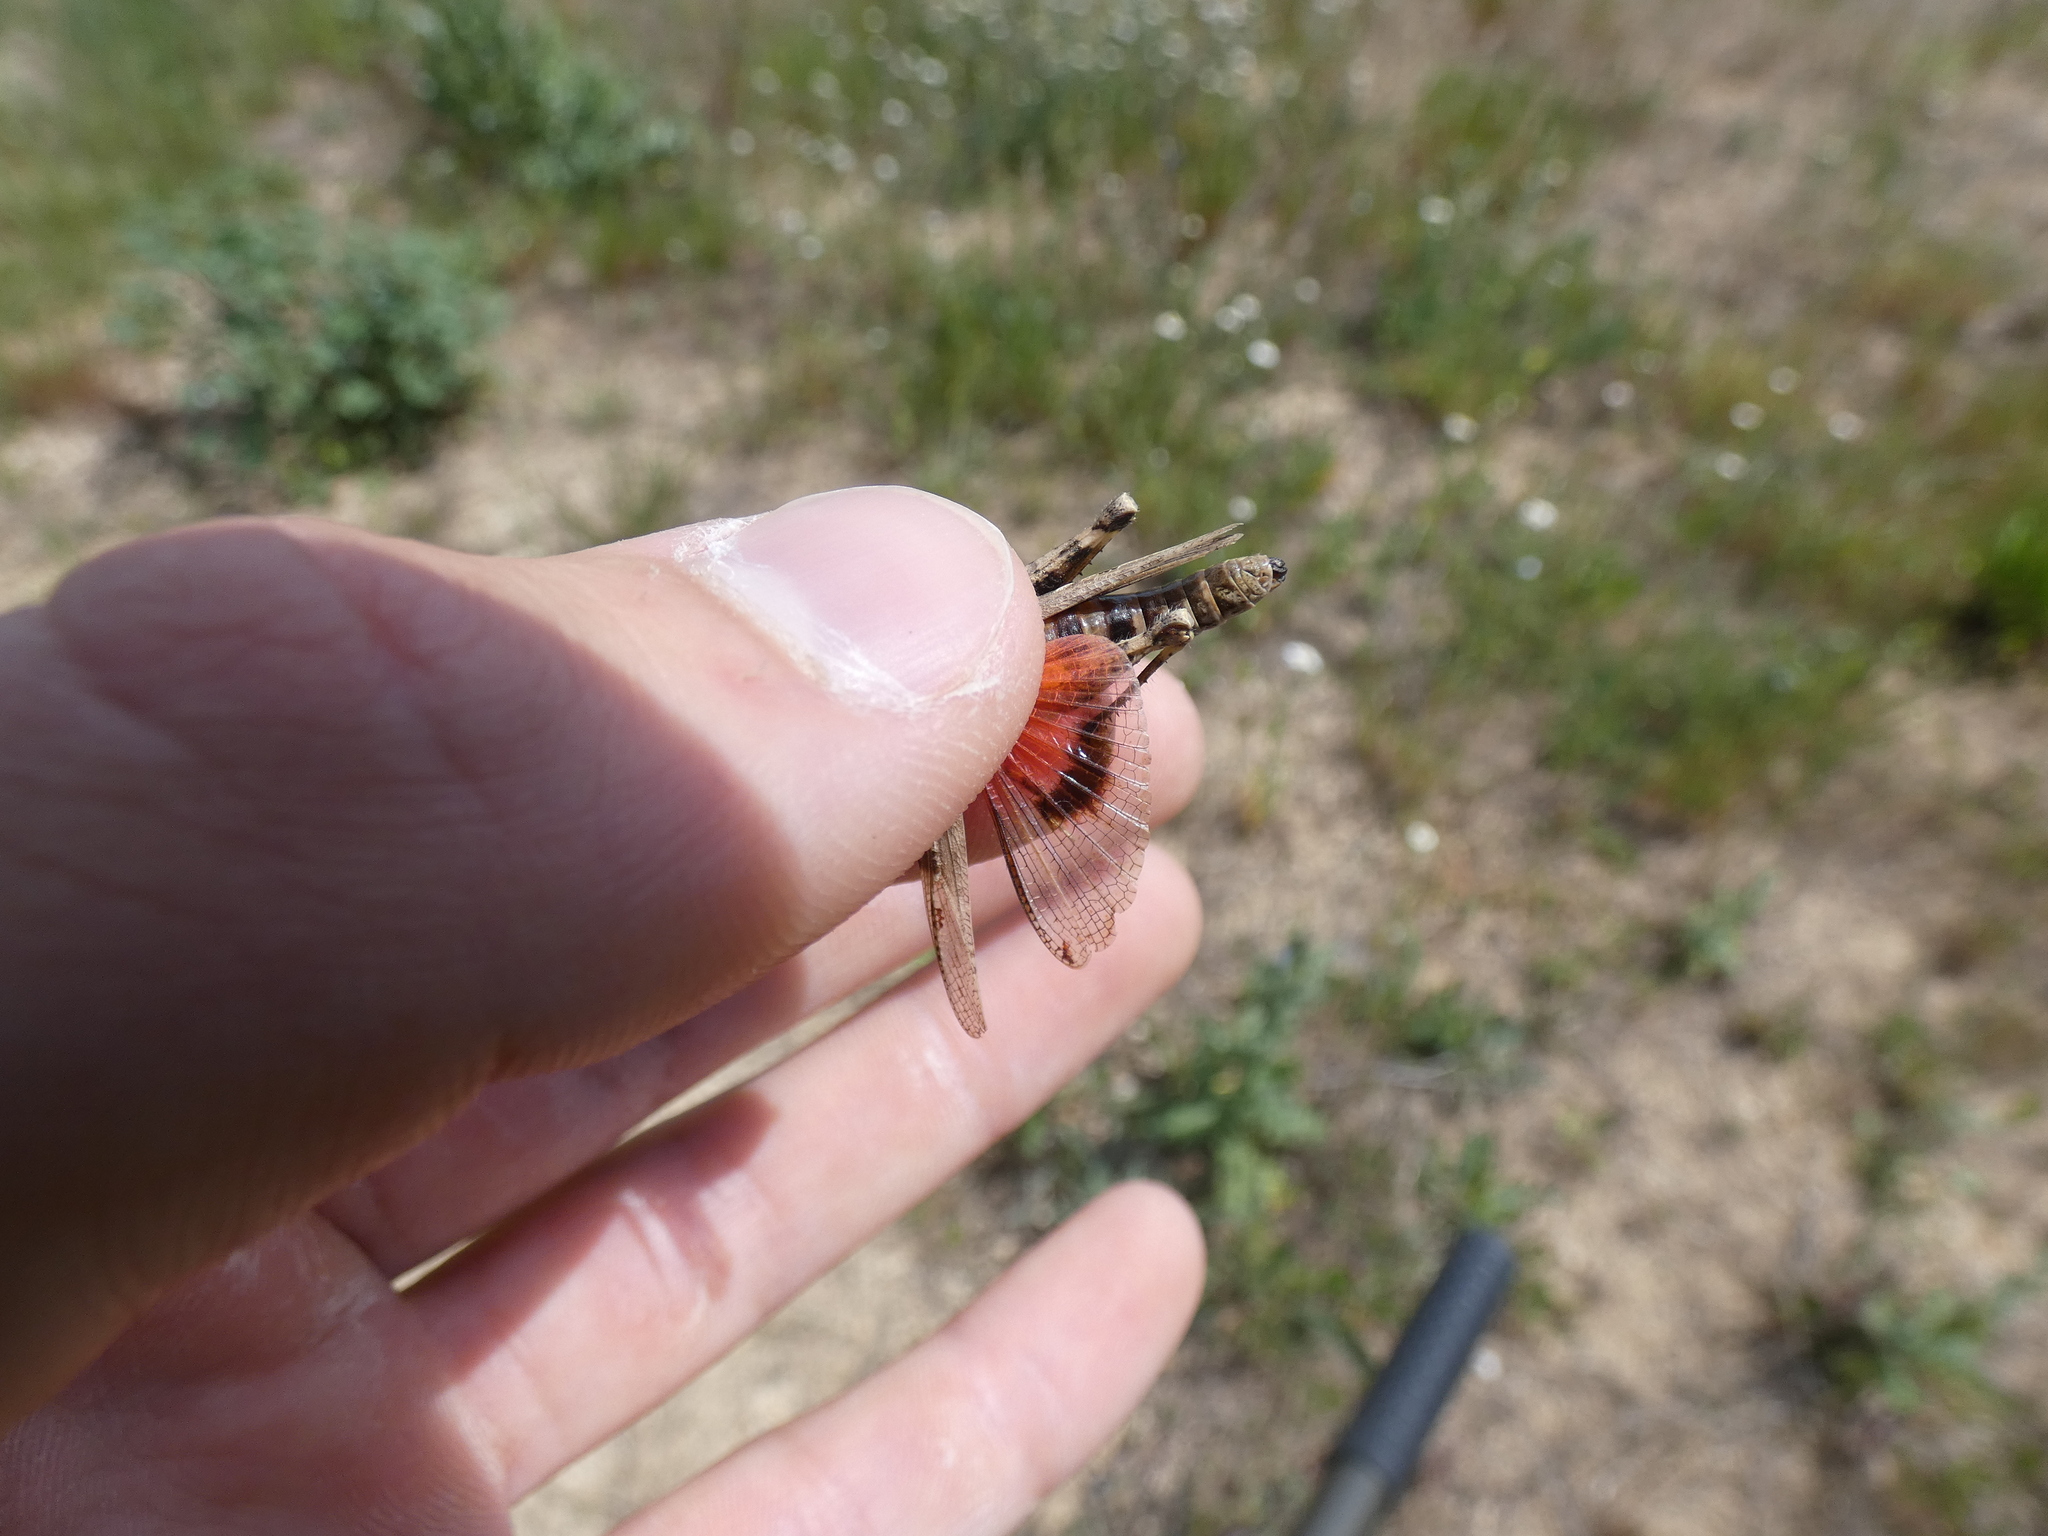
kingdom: Animalia
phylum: Arthropoda
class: Insecta
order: Orthoptera
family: Acrididae
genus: Acrotylus
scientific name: Acrotylus insubricus
